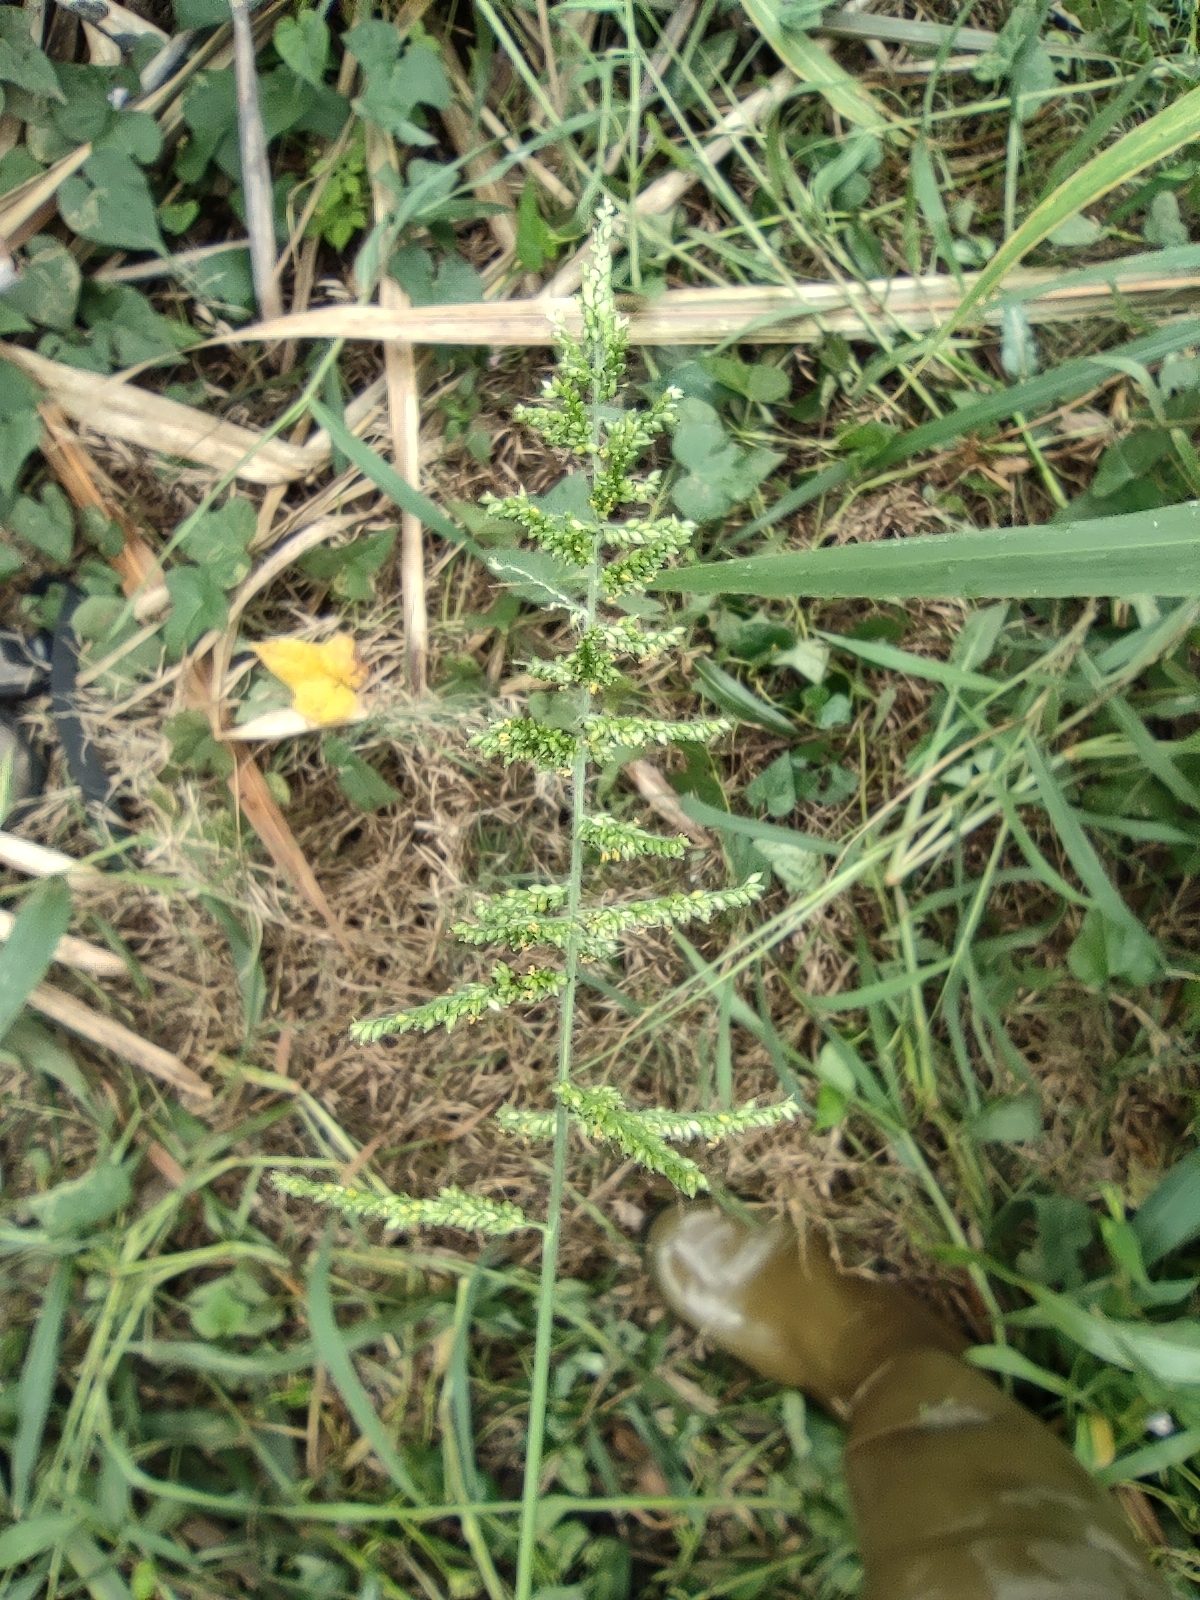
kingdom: Plantae
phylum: Tracheophyta
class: Liliopsida
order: Poales
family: Poaceae
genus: Setaria
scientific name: Setaria barbata
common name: East indian bristlegrass
